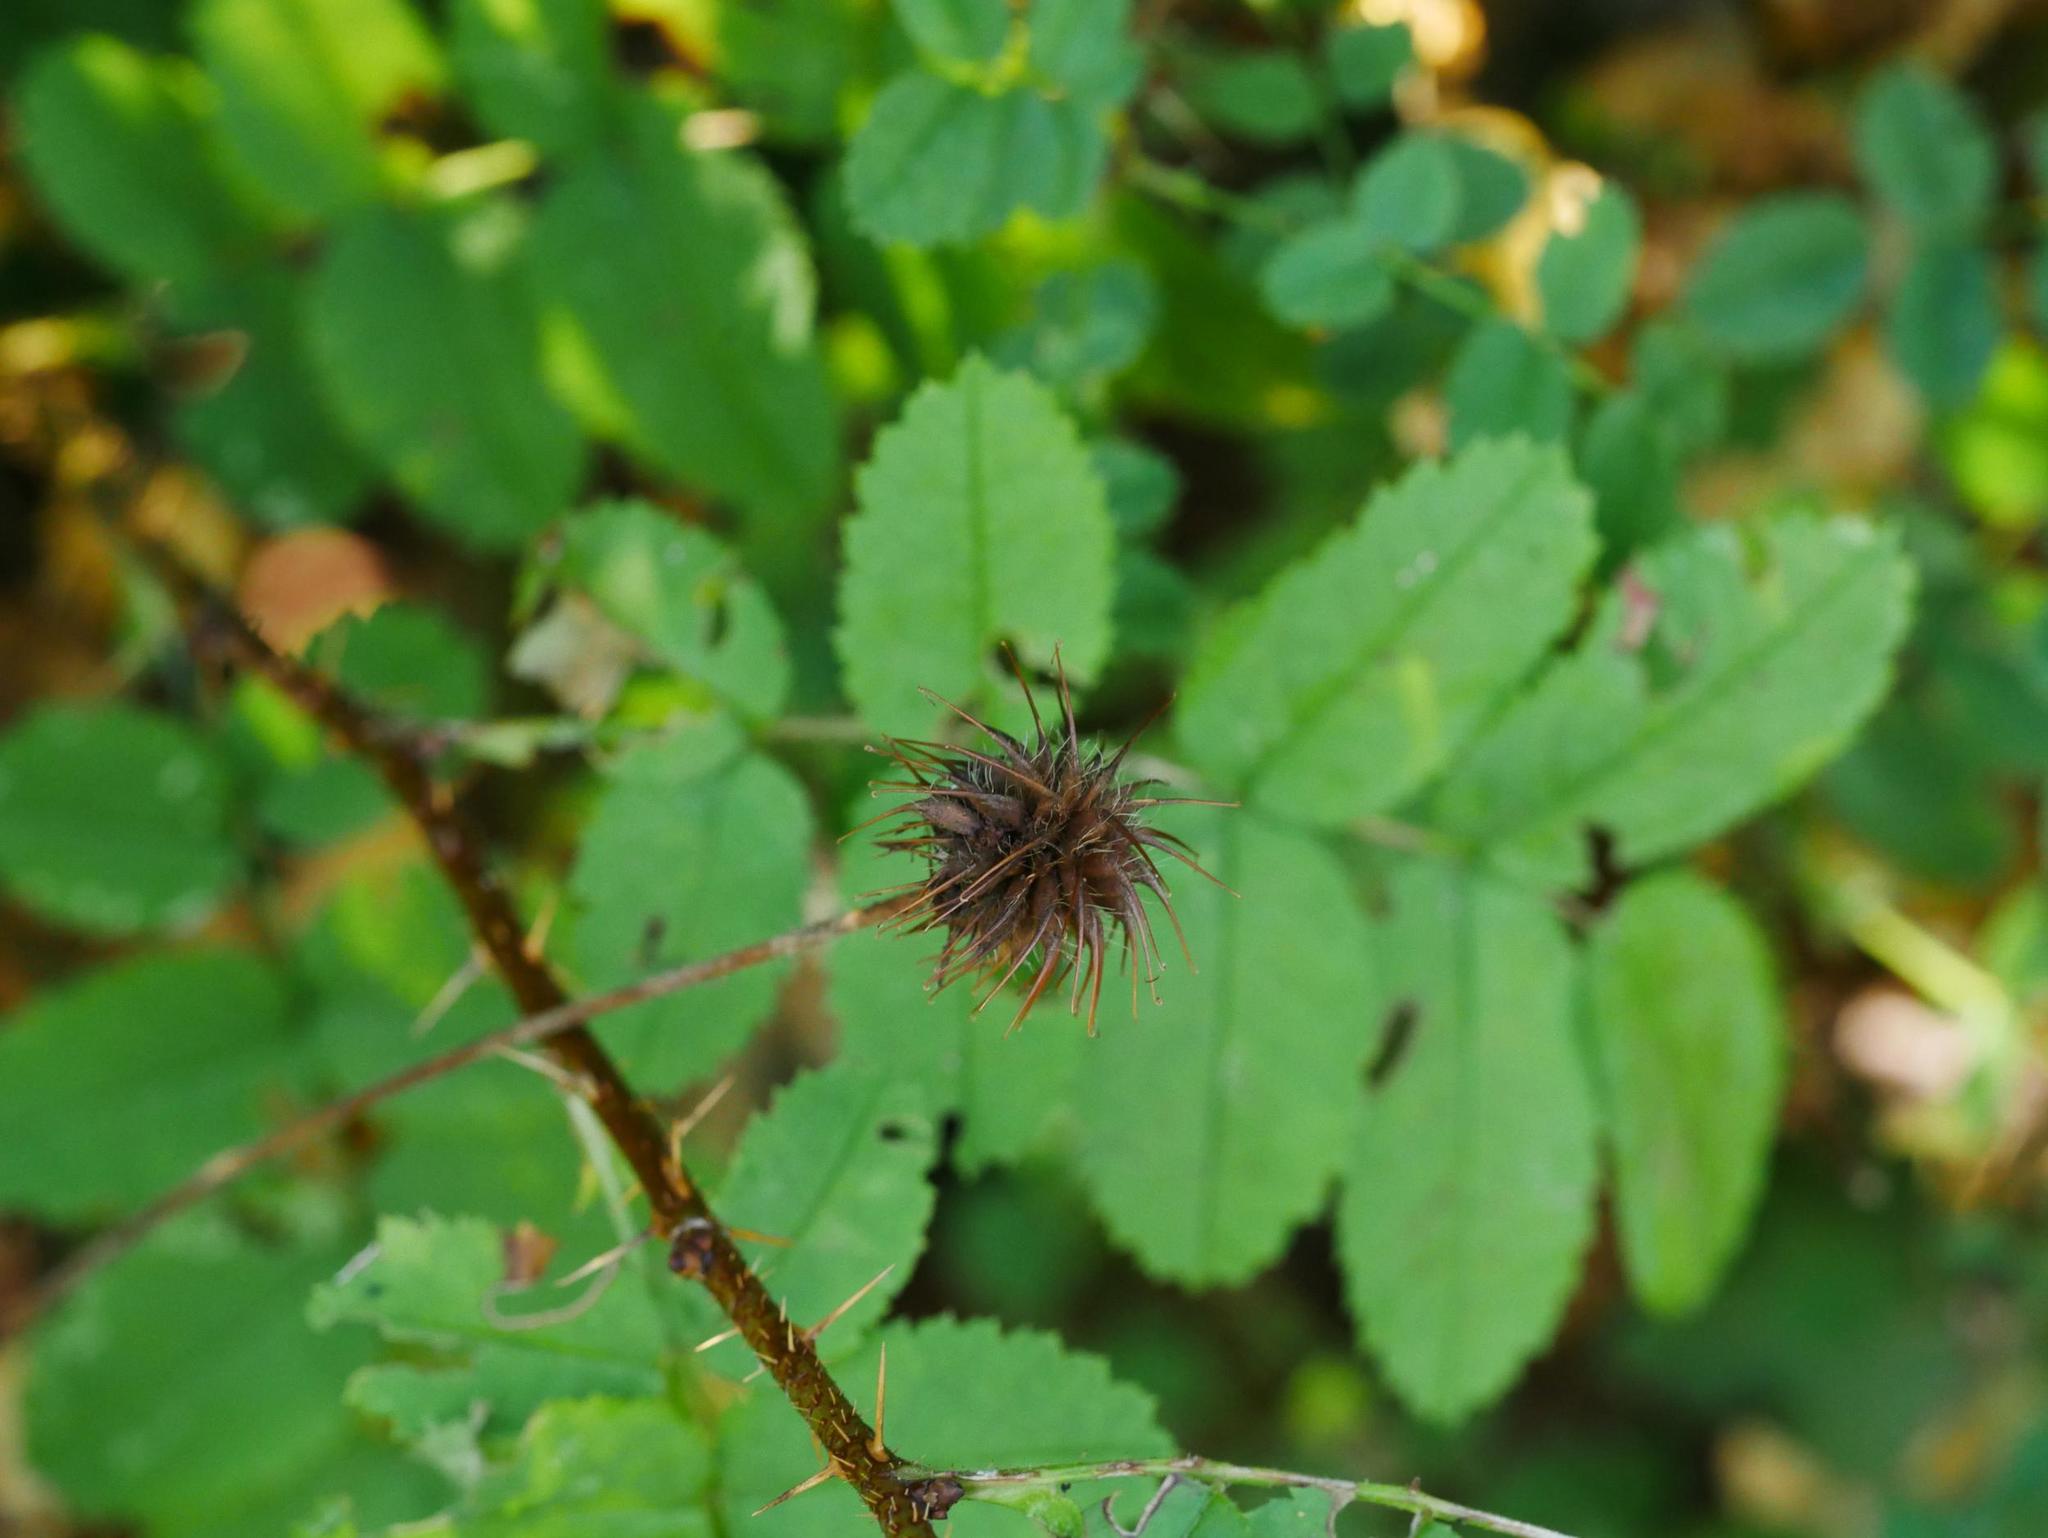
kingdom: Plantae
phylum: Tracheophyta
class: Magnoliopsida
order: Rosales
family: Rosaceae
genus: Geum
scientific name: Geum urbanum
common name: Wood avens
